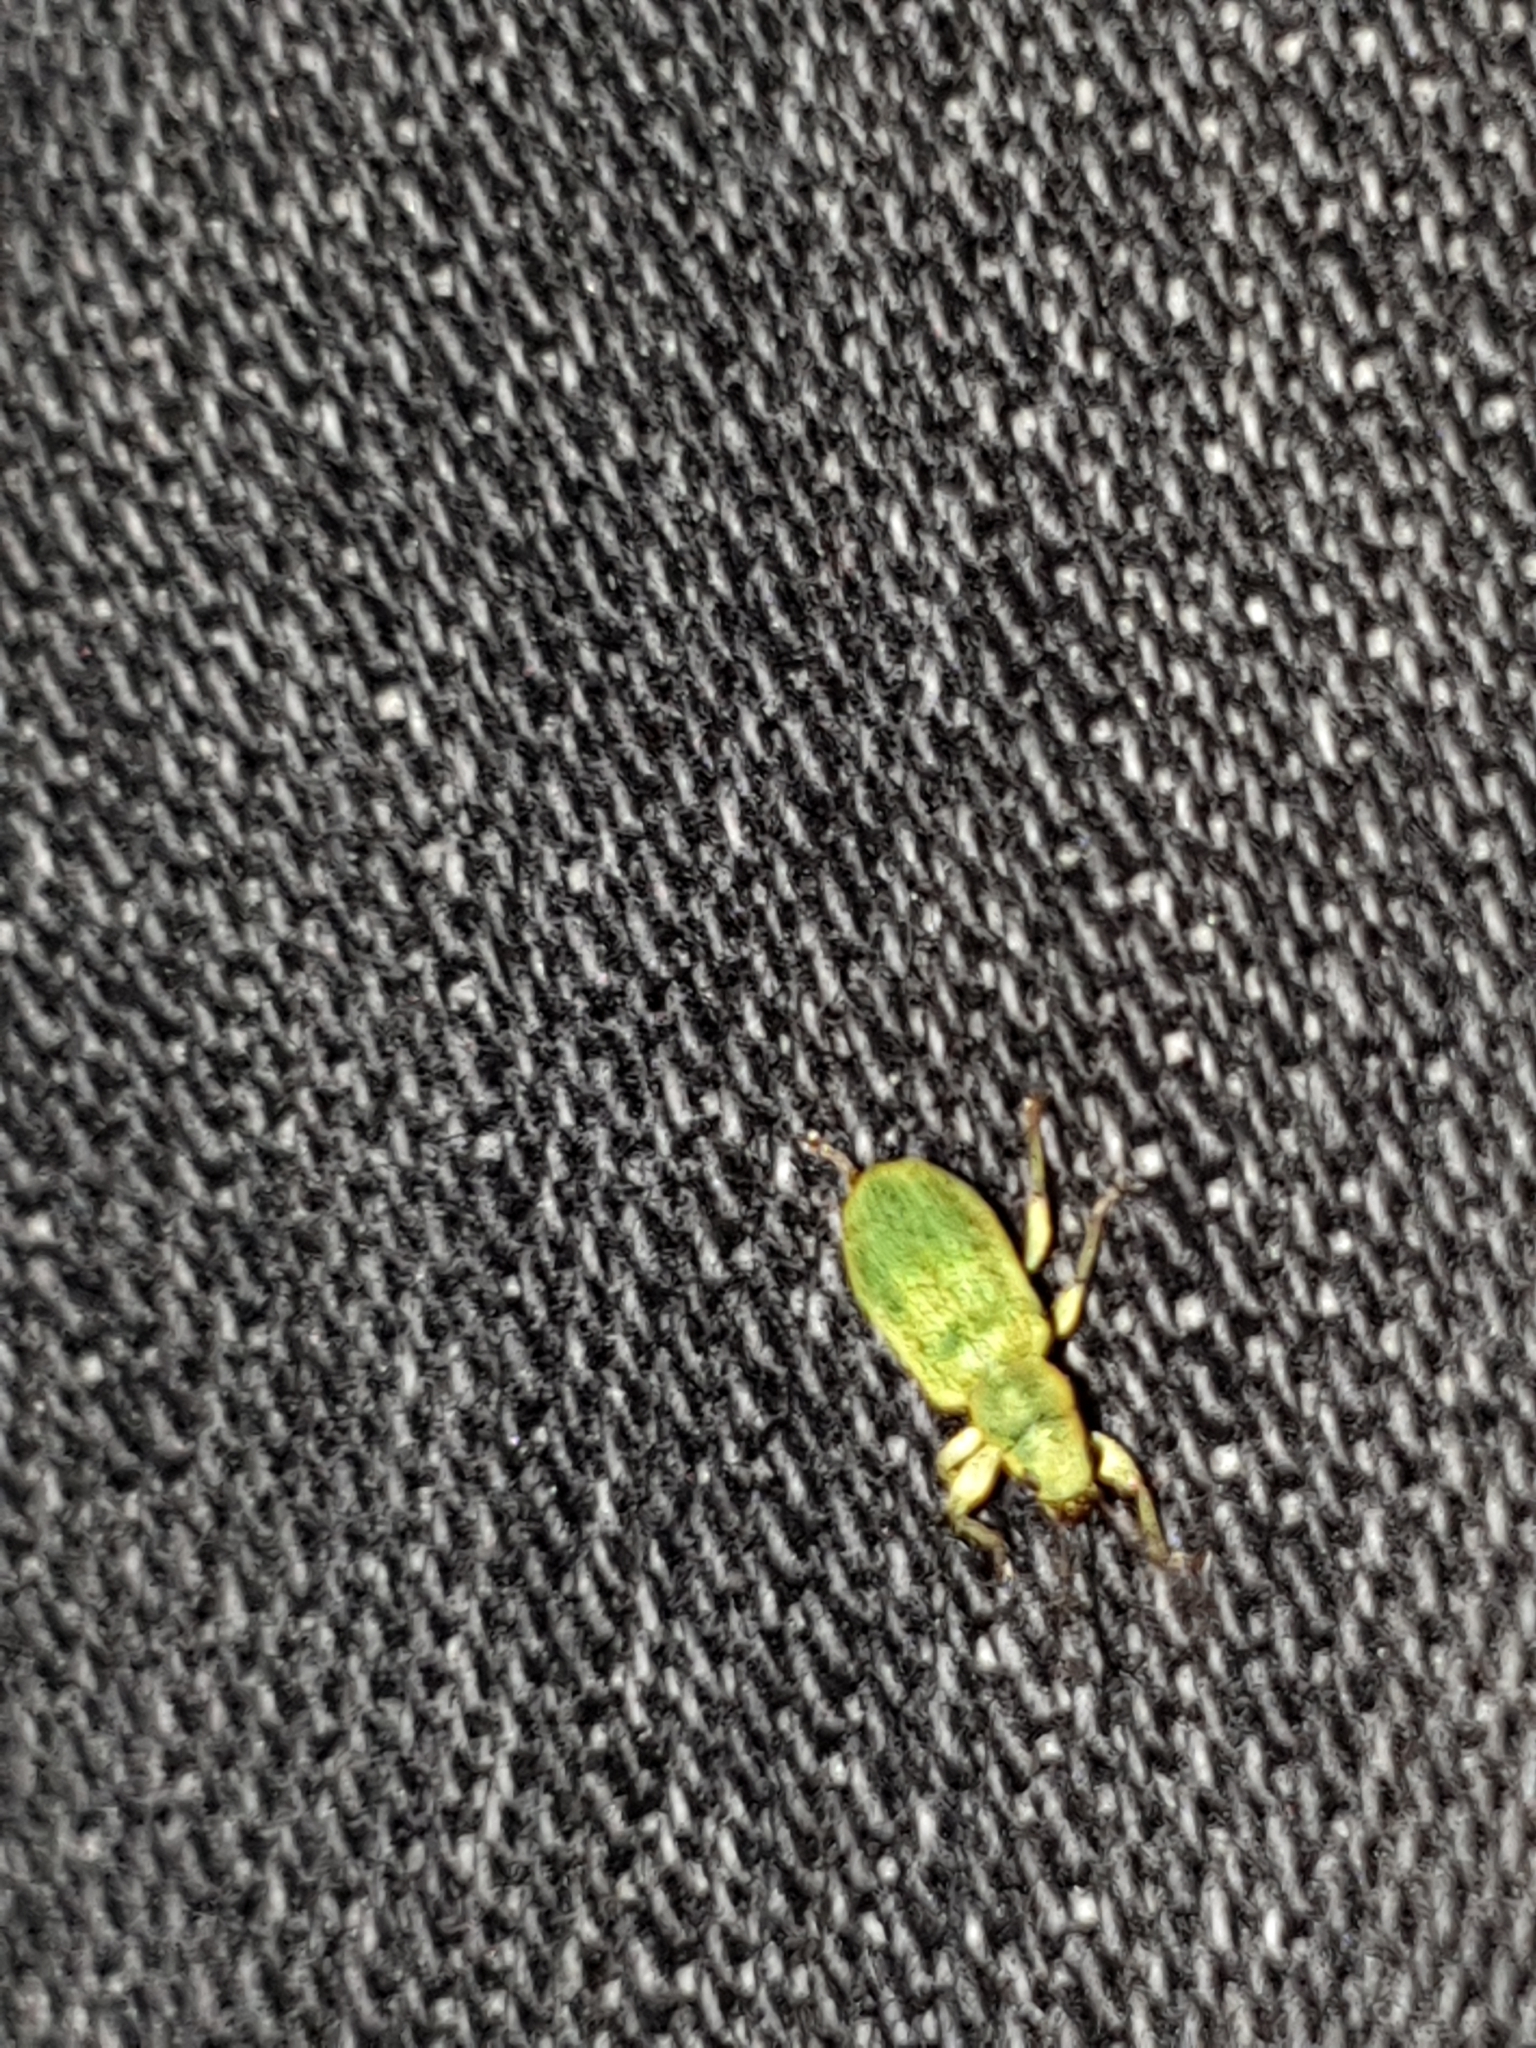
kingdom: Animalia
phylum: Arthropoda
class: Insecta
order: Coleoptera
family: Curculionidae
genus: Pachyrhinus
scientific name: Pachyrhinus lethierryi
